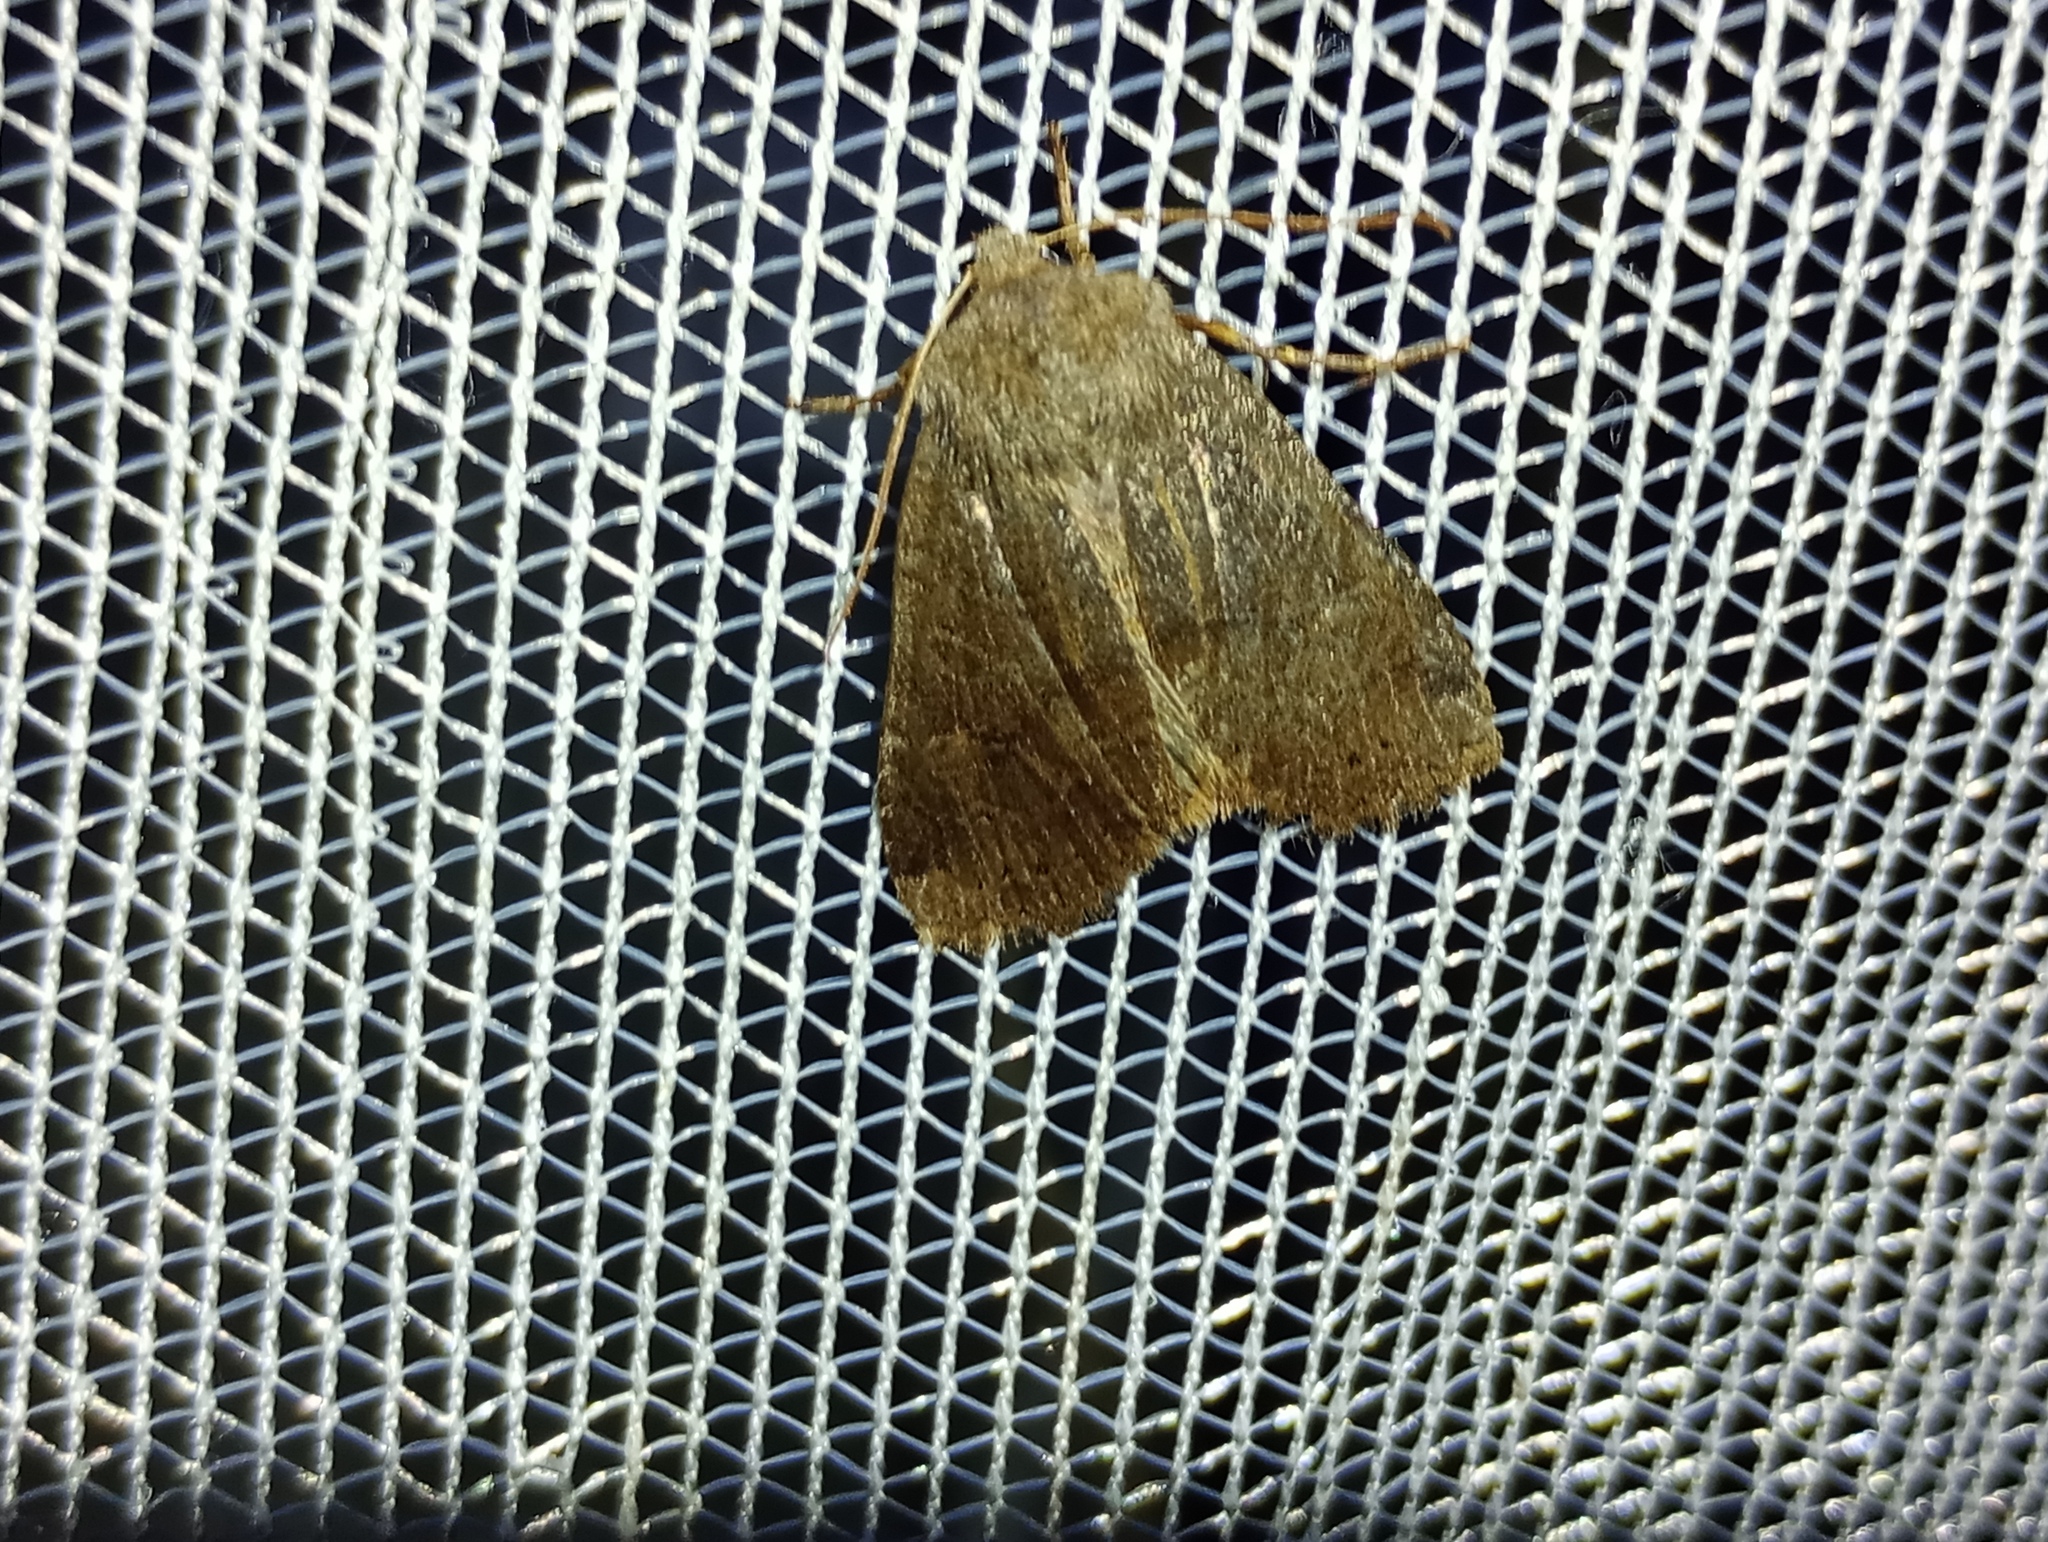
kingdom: Animalia
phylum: Arthropoda
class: Insecta
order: Lepidoptera
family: Noctuidae
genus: Conistra
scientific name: Conistra vaccinii
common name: Chestnut
